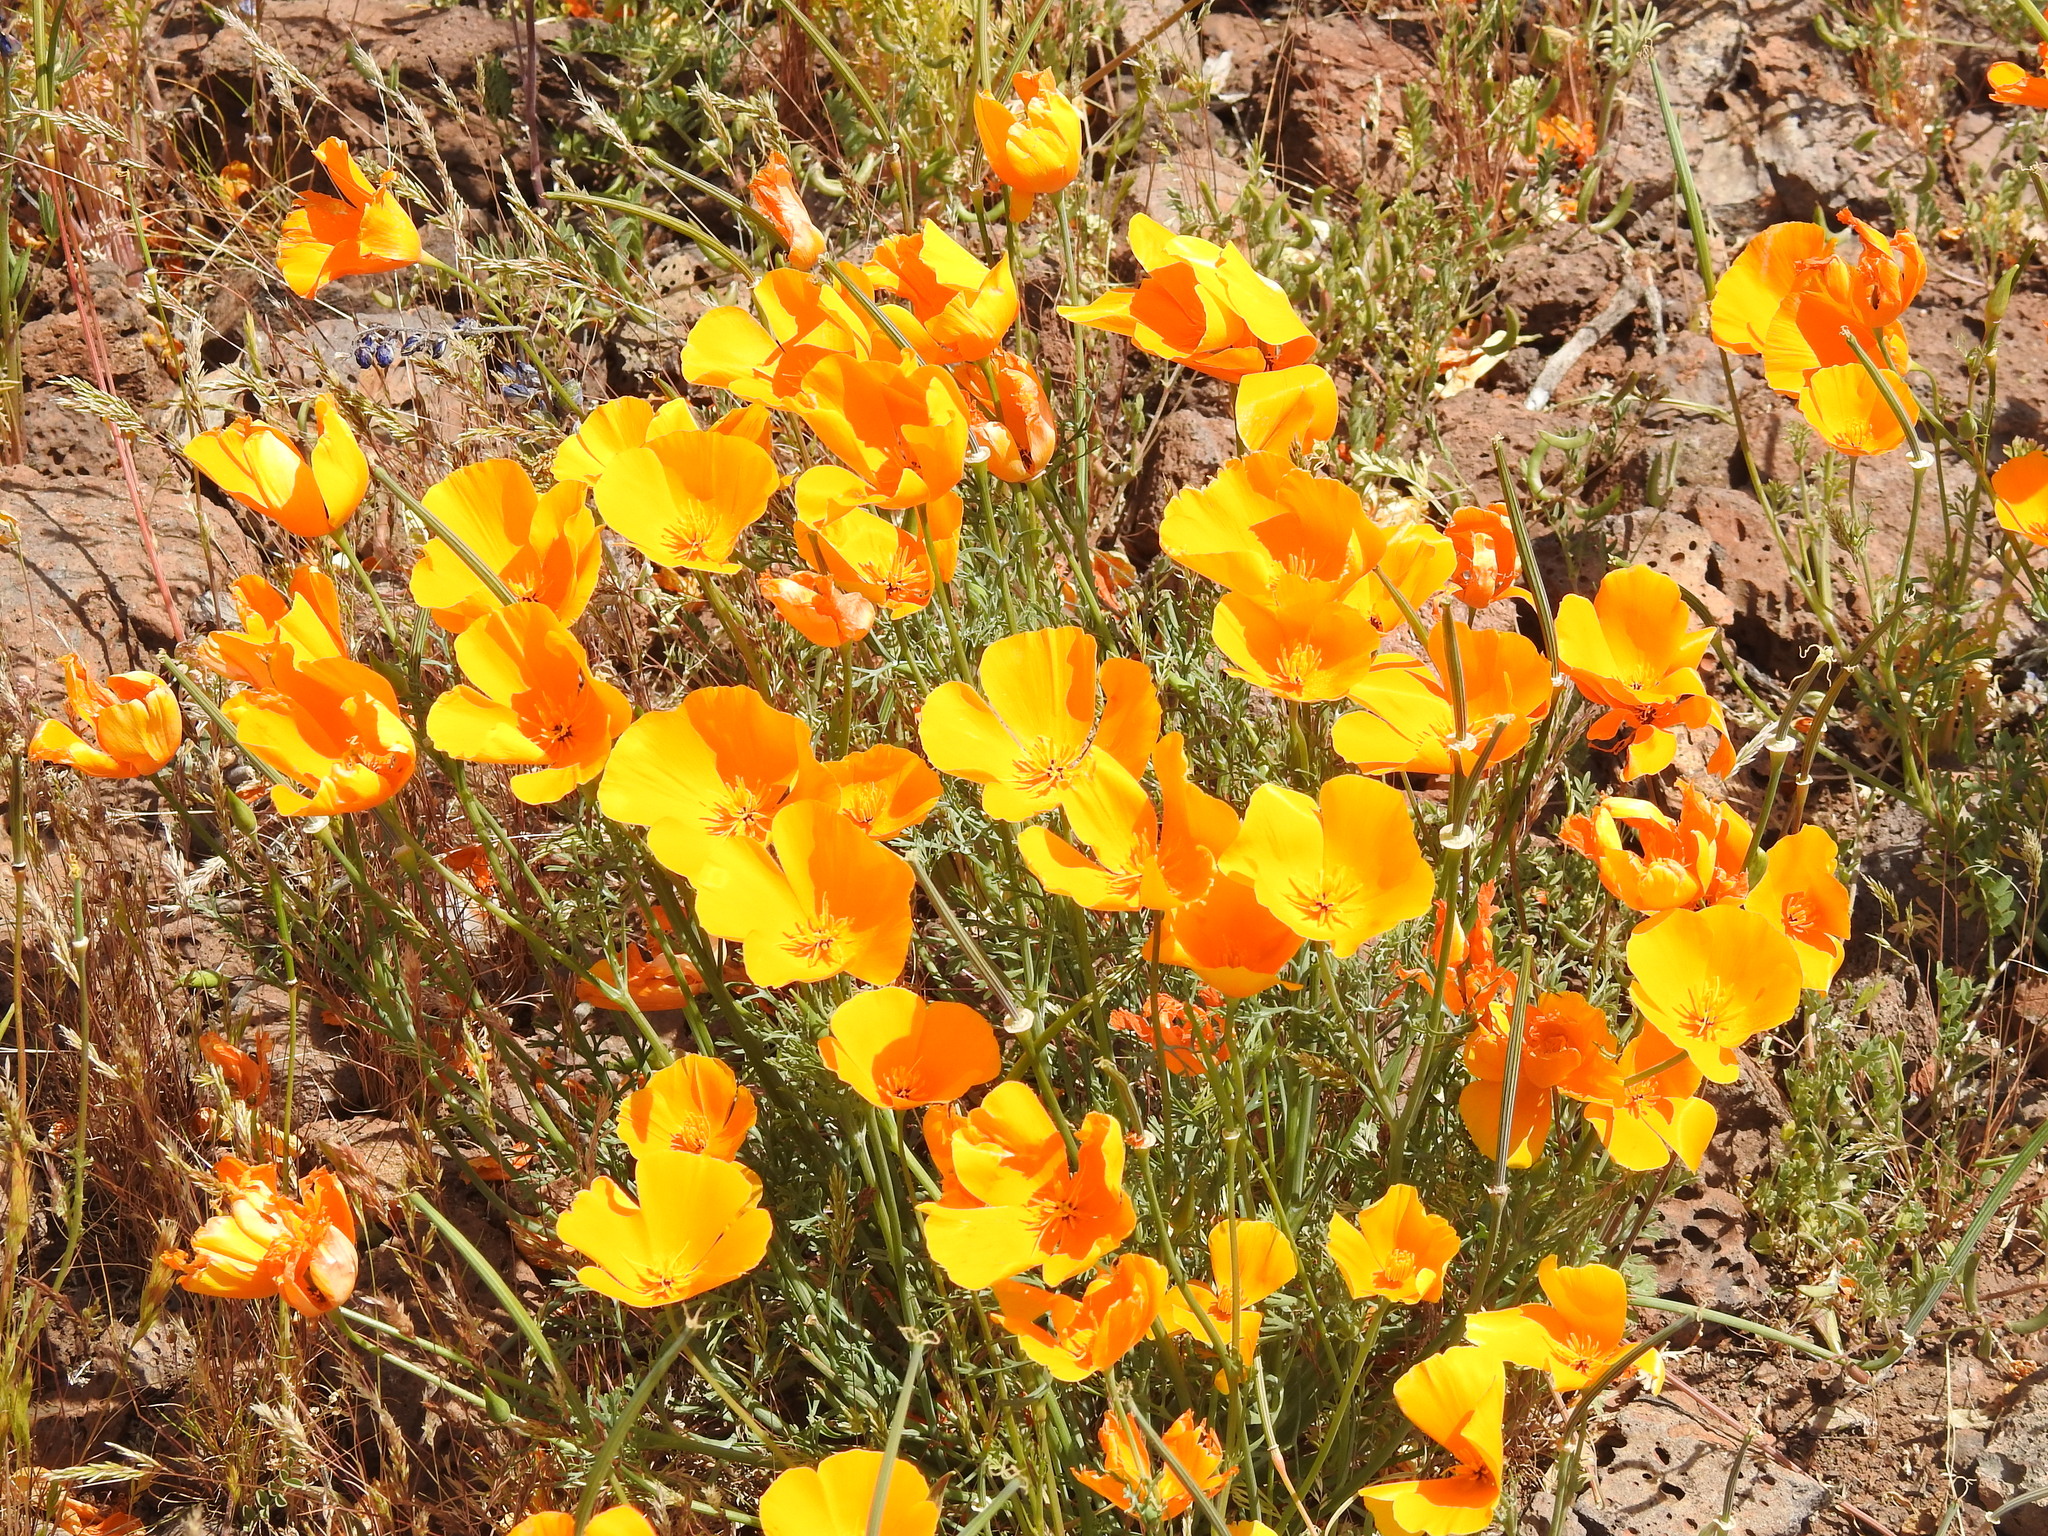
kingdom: Plantae
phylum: Tracheophyta
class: Magnoliopsida
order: Ranunculales
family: Papaveraceae
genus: Eschscholzia
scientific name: Eschscholzia californica
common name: California poppy
